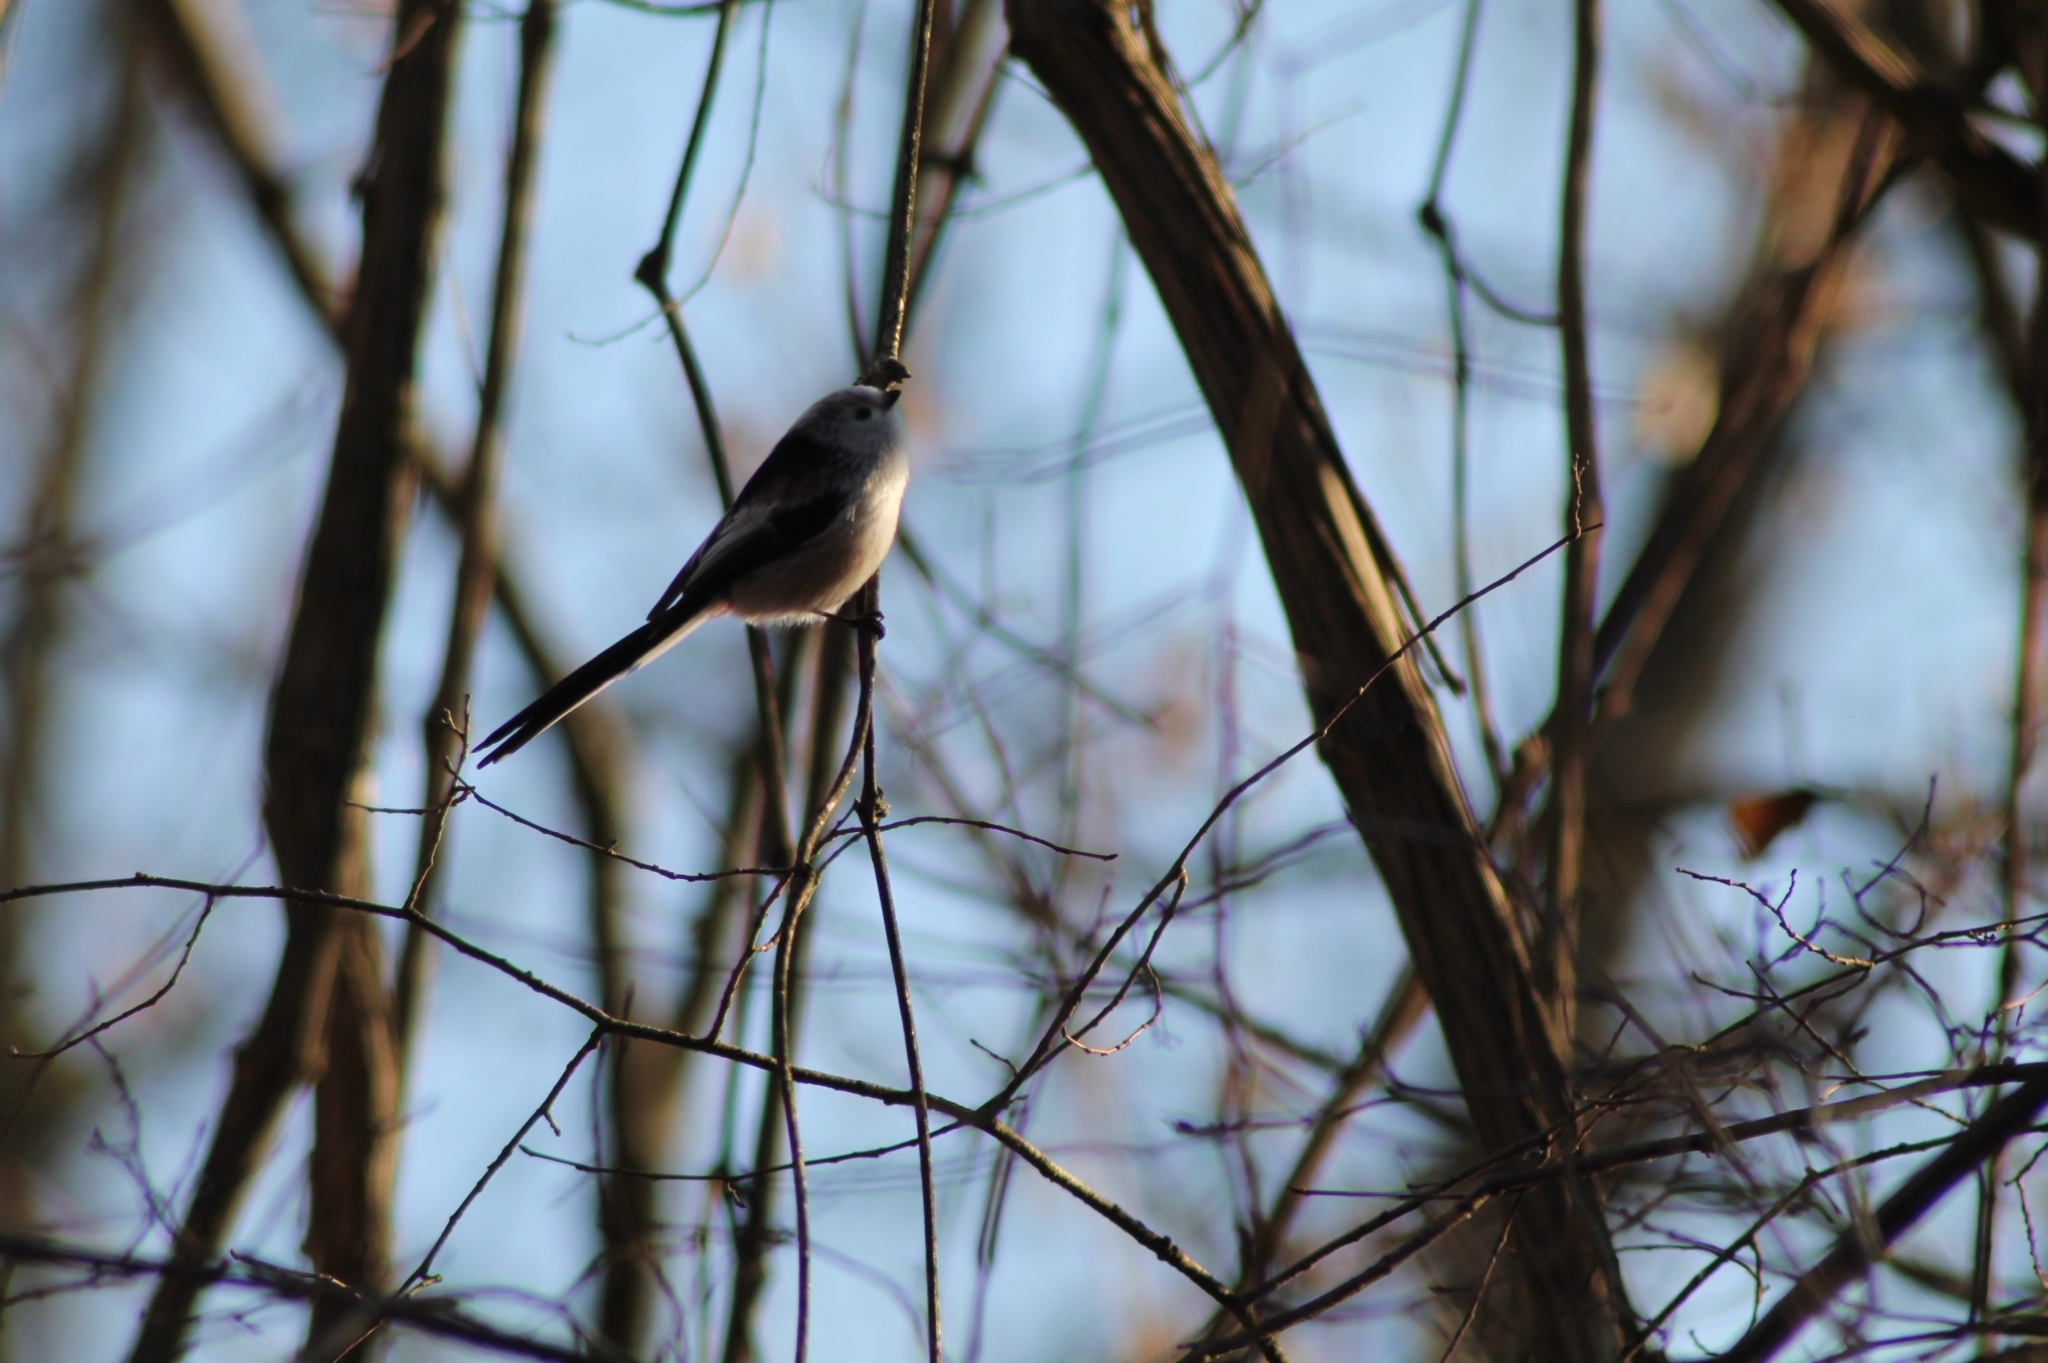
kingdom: Animalia
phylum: Chordata
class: Aves
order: Passeriformes
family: Aegithalidae
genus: Aegithalos
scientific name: Aegithalos caudatus
